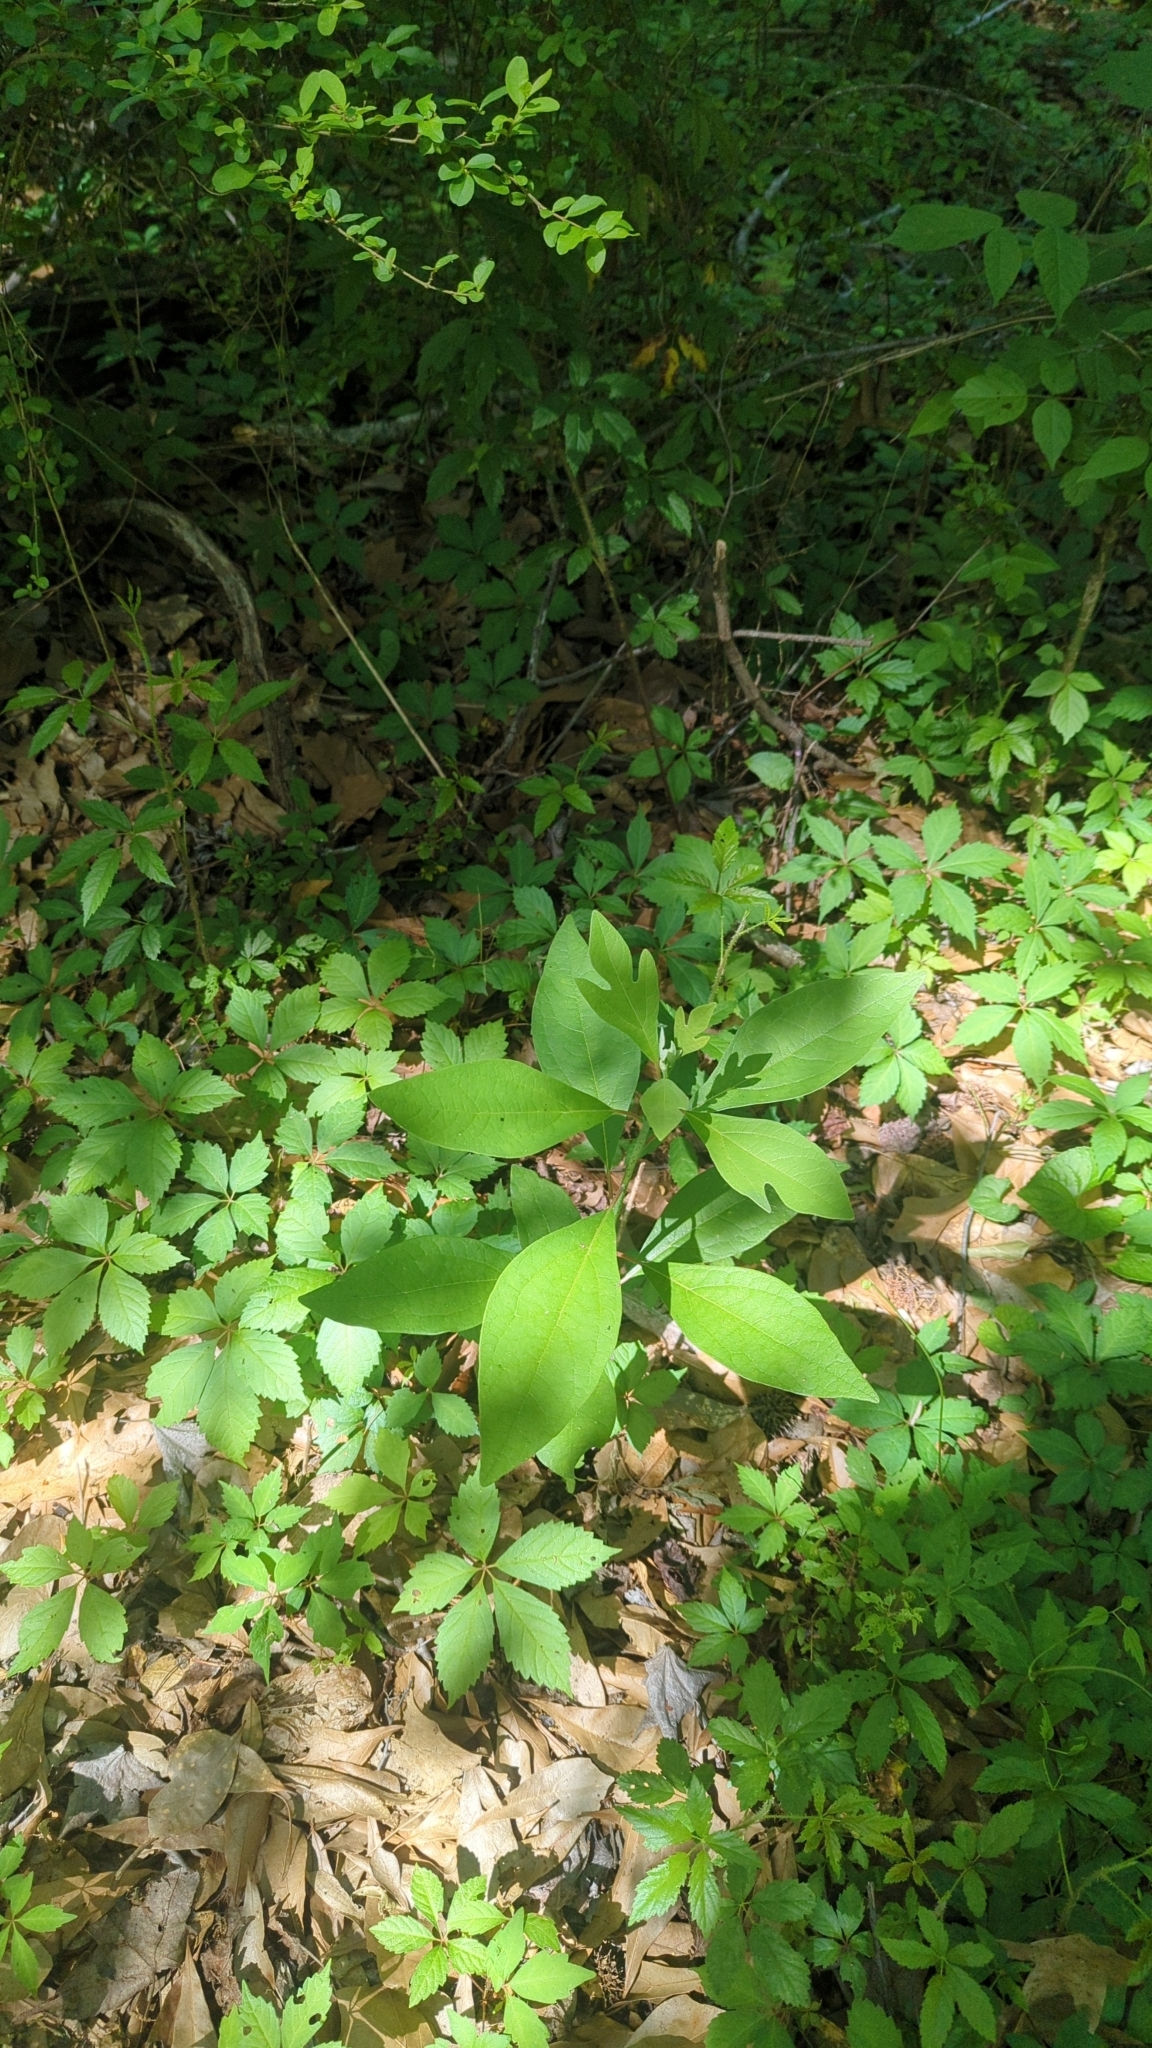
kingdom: Plantae
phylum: Tracheophyta
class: Magnoliopsida
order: Laurales
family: Lauraceae
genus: Sassafras
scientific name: Sassafras albidum
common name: Sassafras
